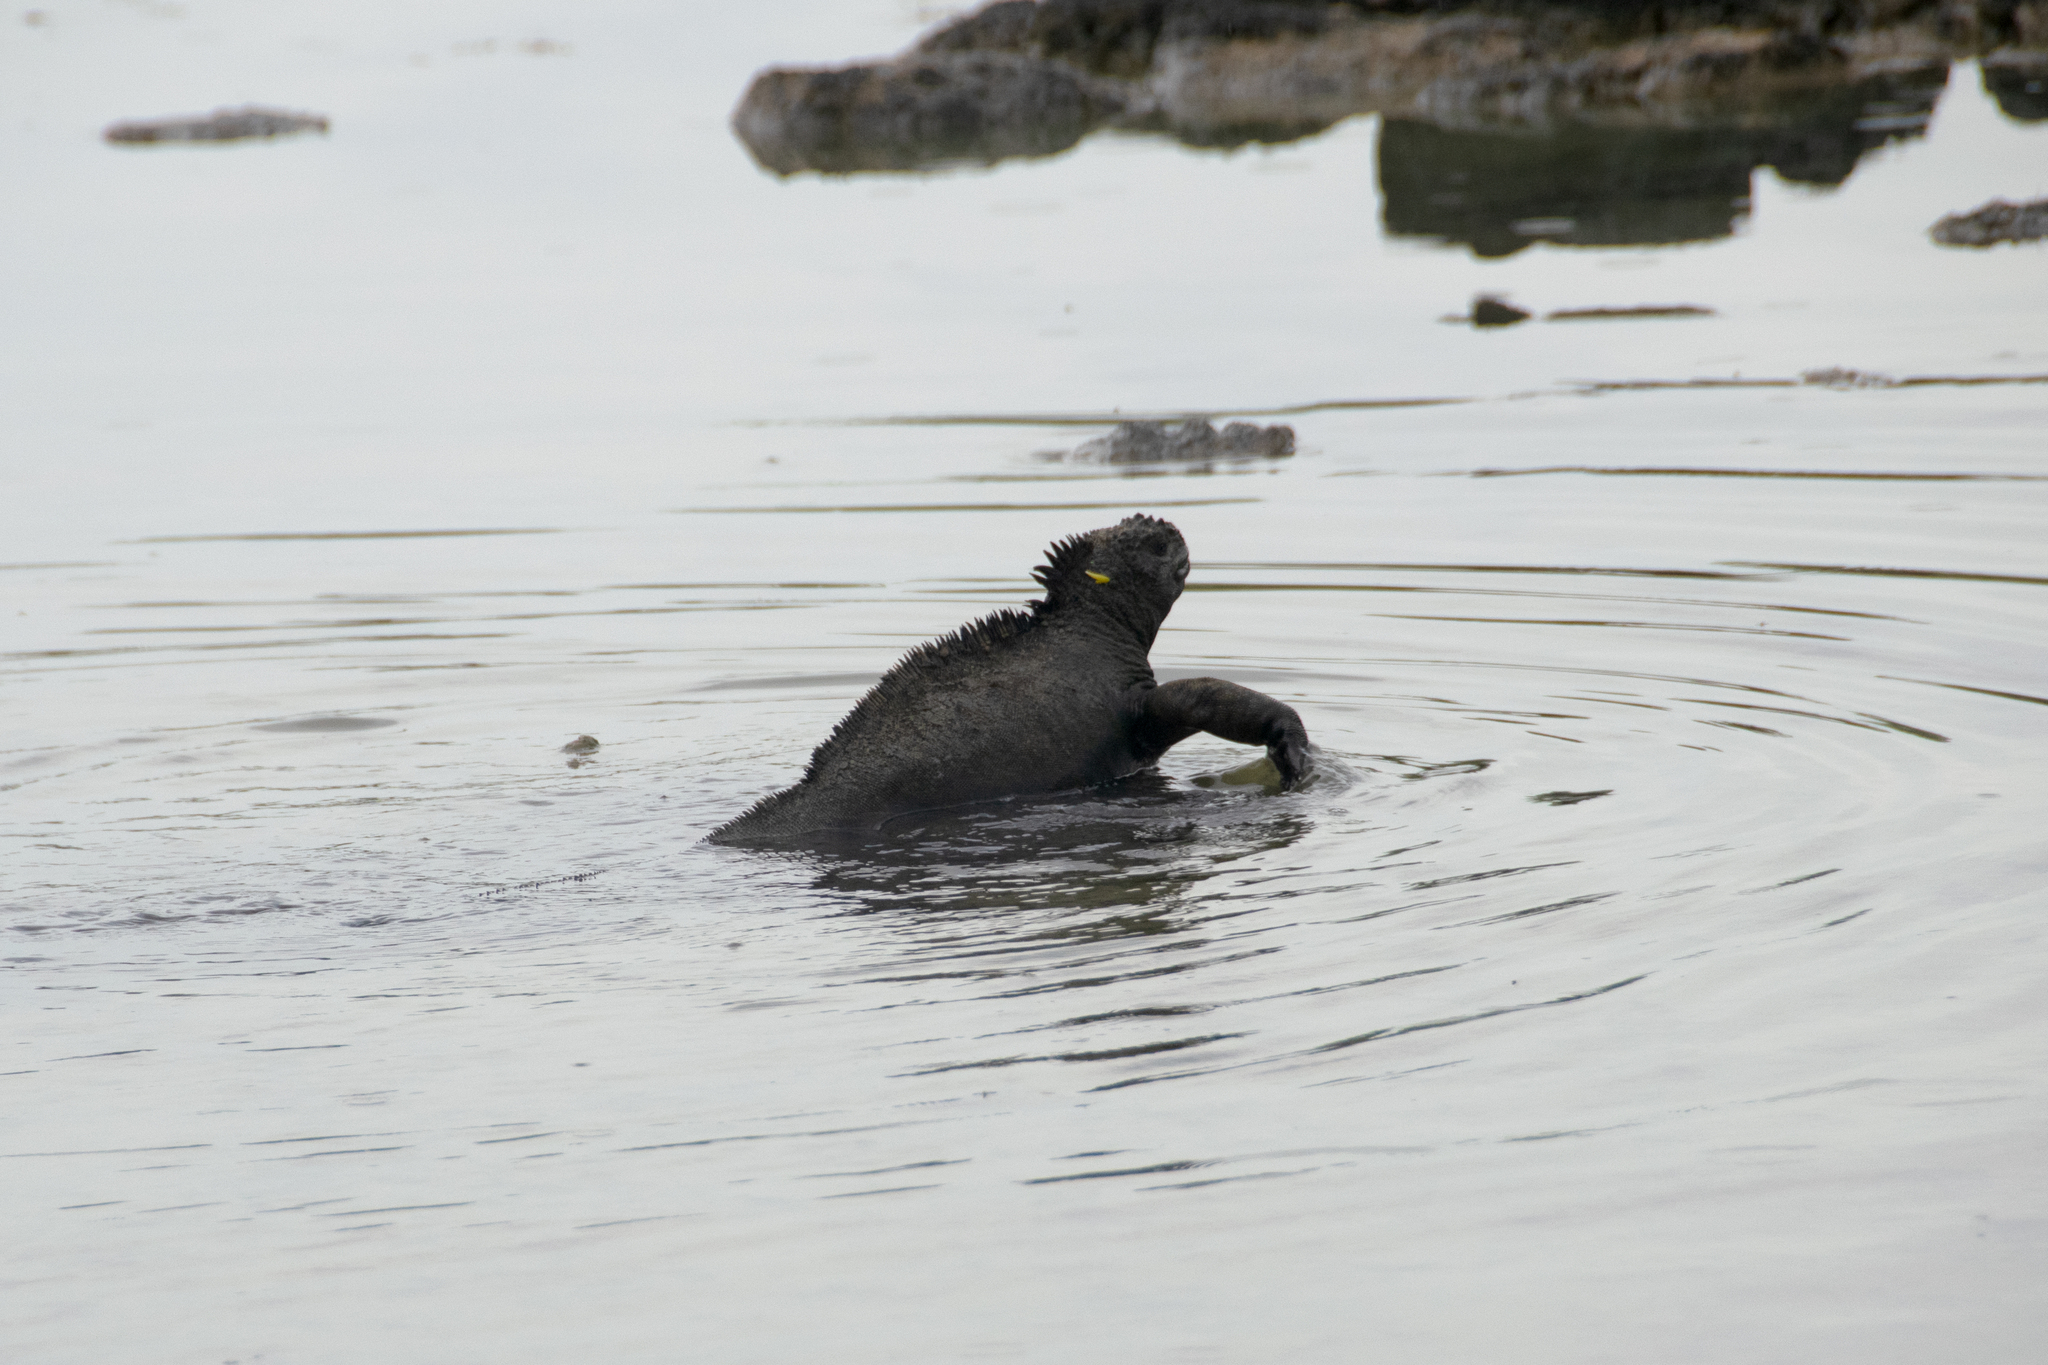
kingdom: Animalia
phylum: Chordata
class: Squamata
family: Iguanidae
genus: Amblyrhynchus
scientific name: Amblyrhynchus cristatus
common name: Marine iguana
